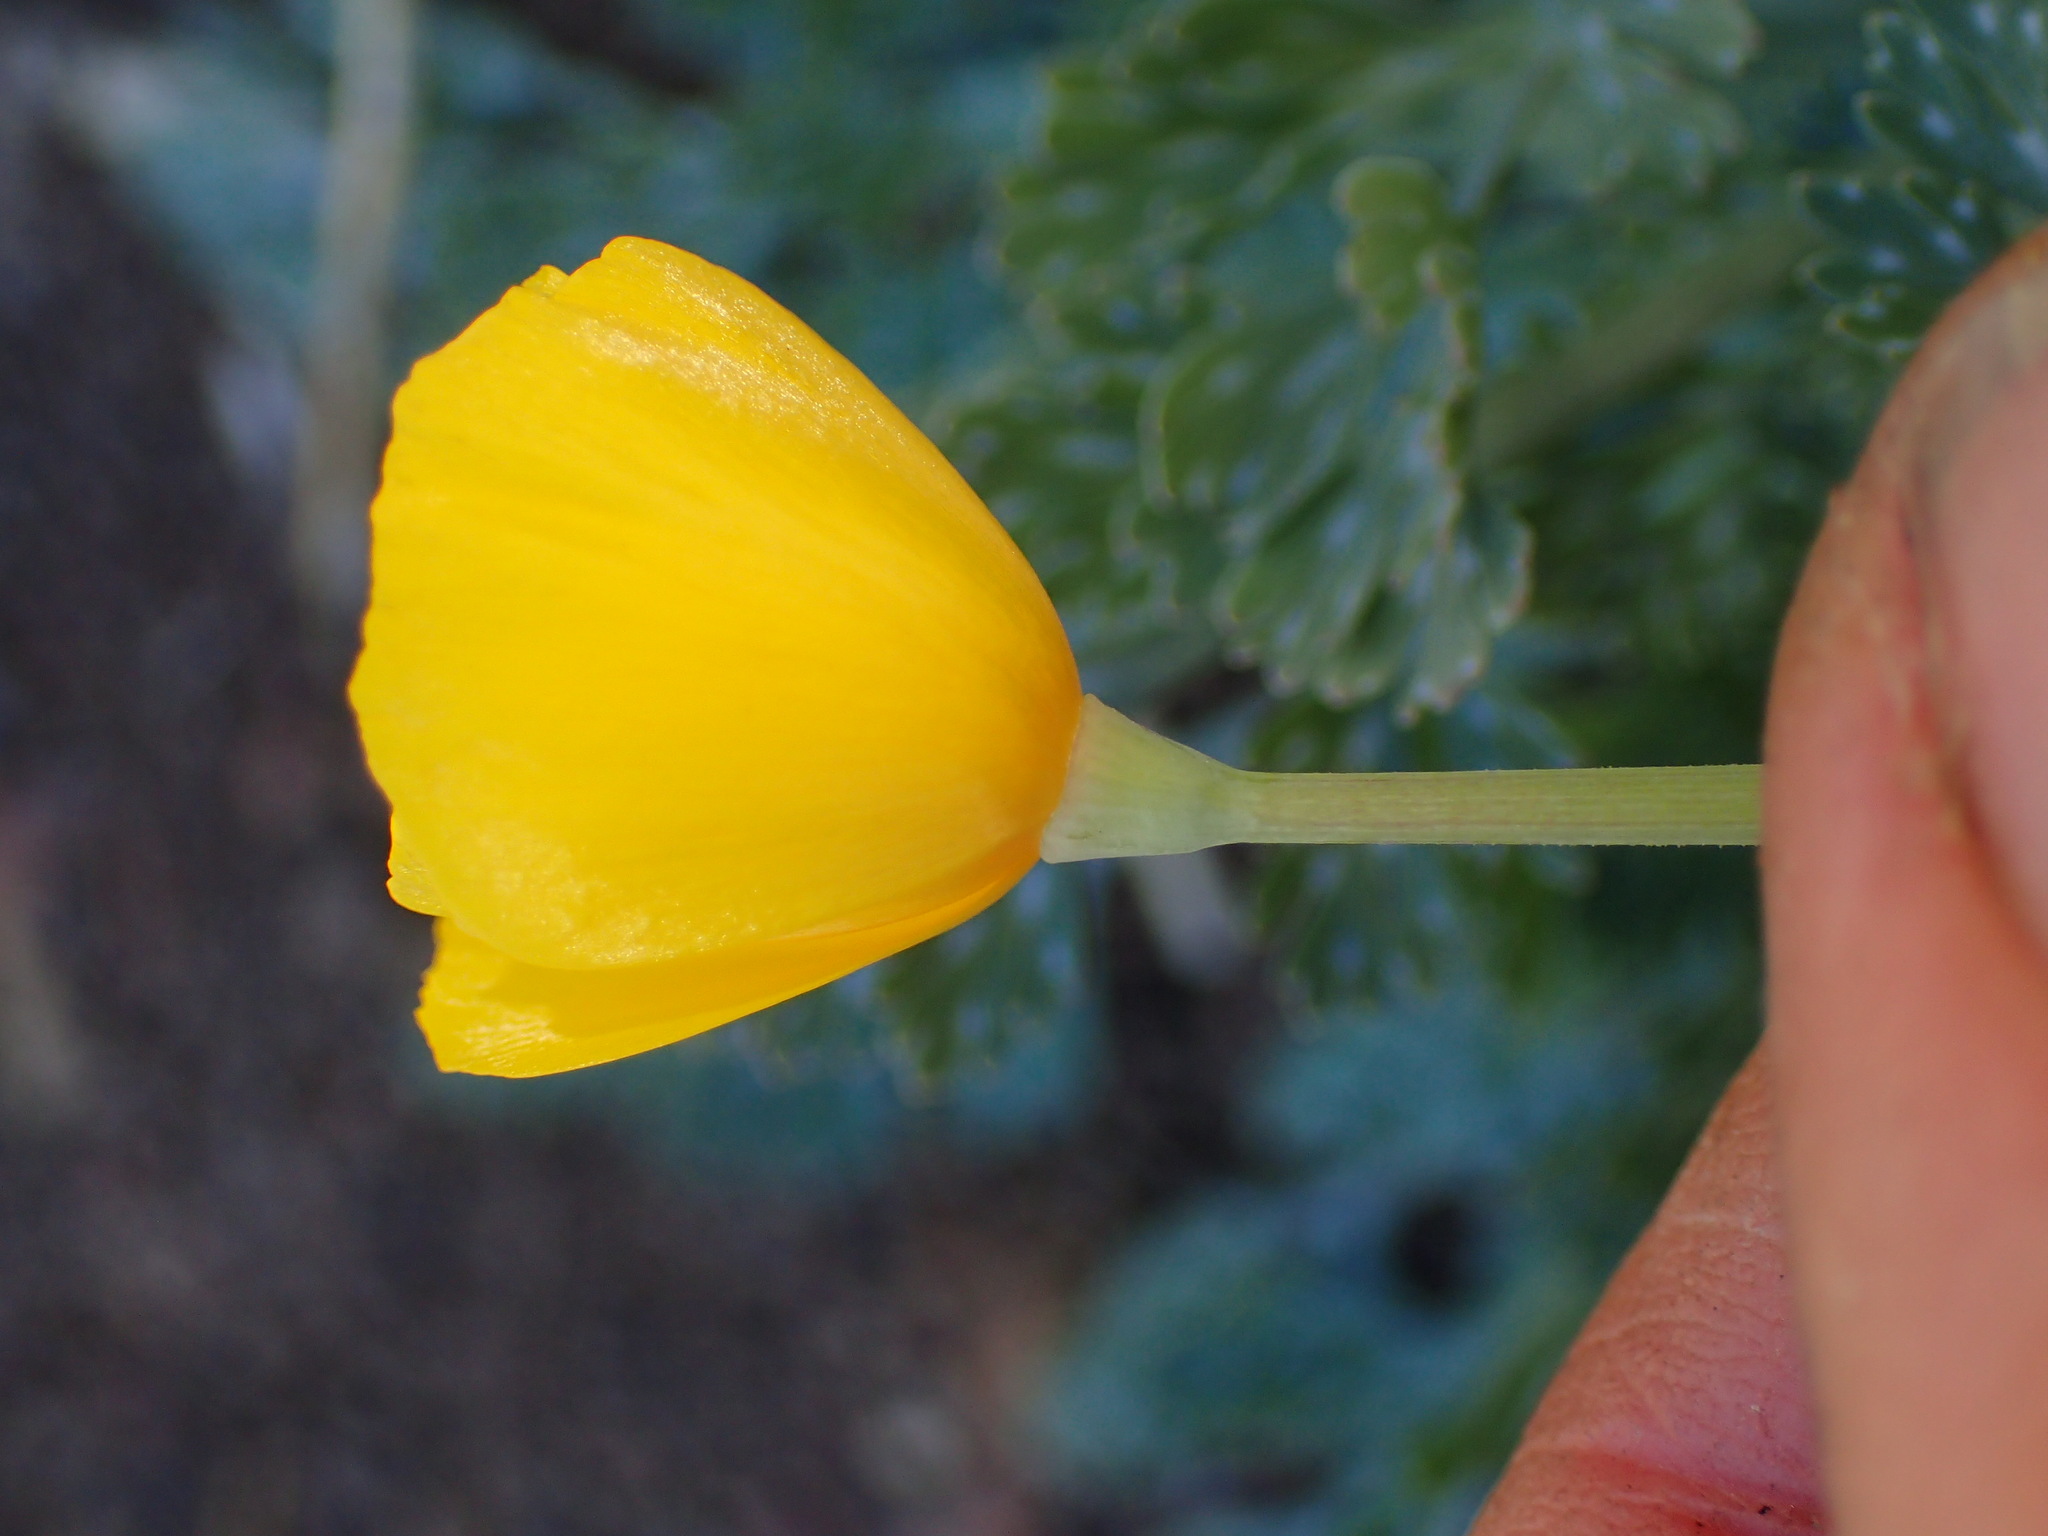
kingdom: Plantae
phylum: Tracheophyta
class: Magnoliopsida
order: Ranunculales
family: Papaveraceae
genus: Eschscholzia
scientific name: Eschscholzia caespitosa
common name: Tufted california-poppy
